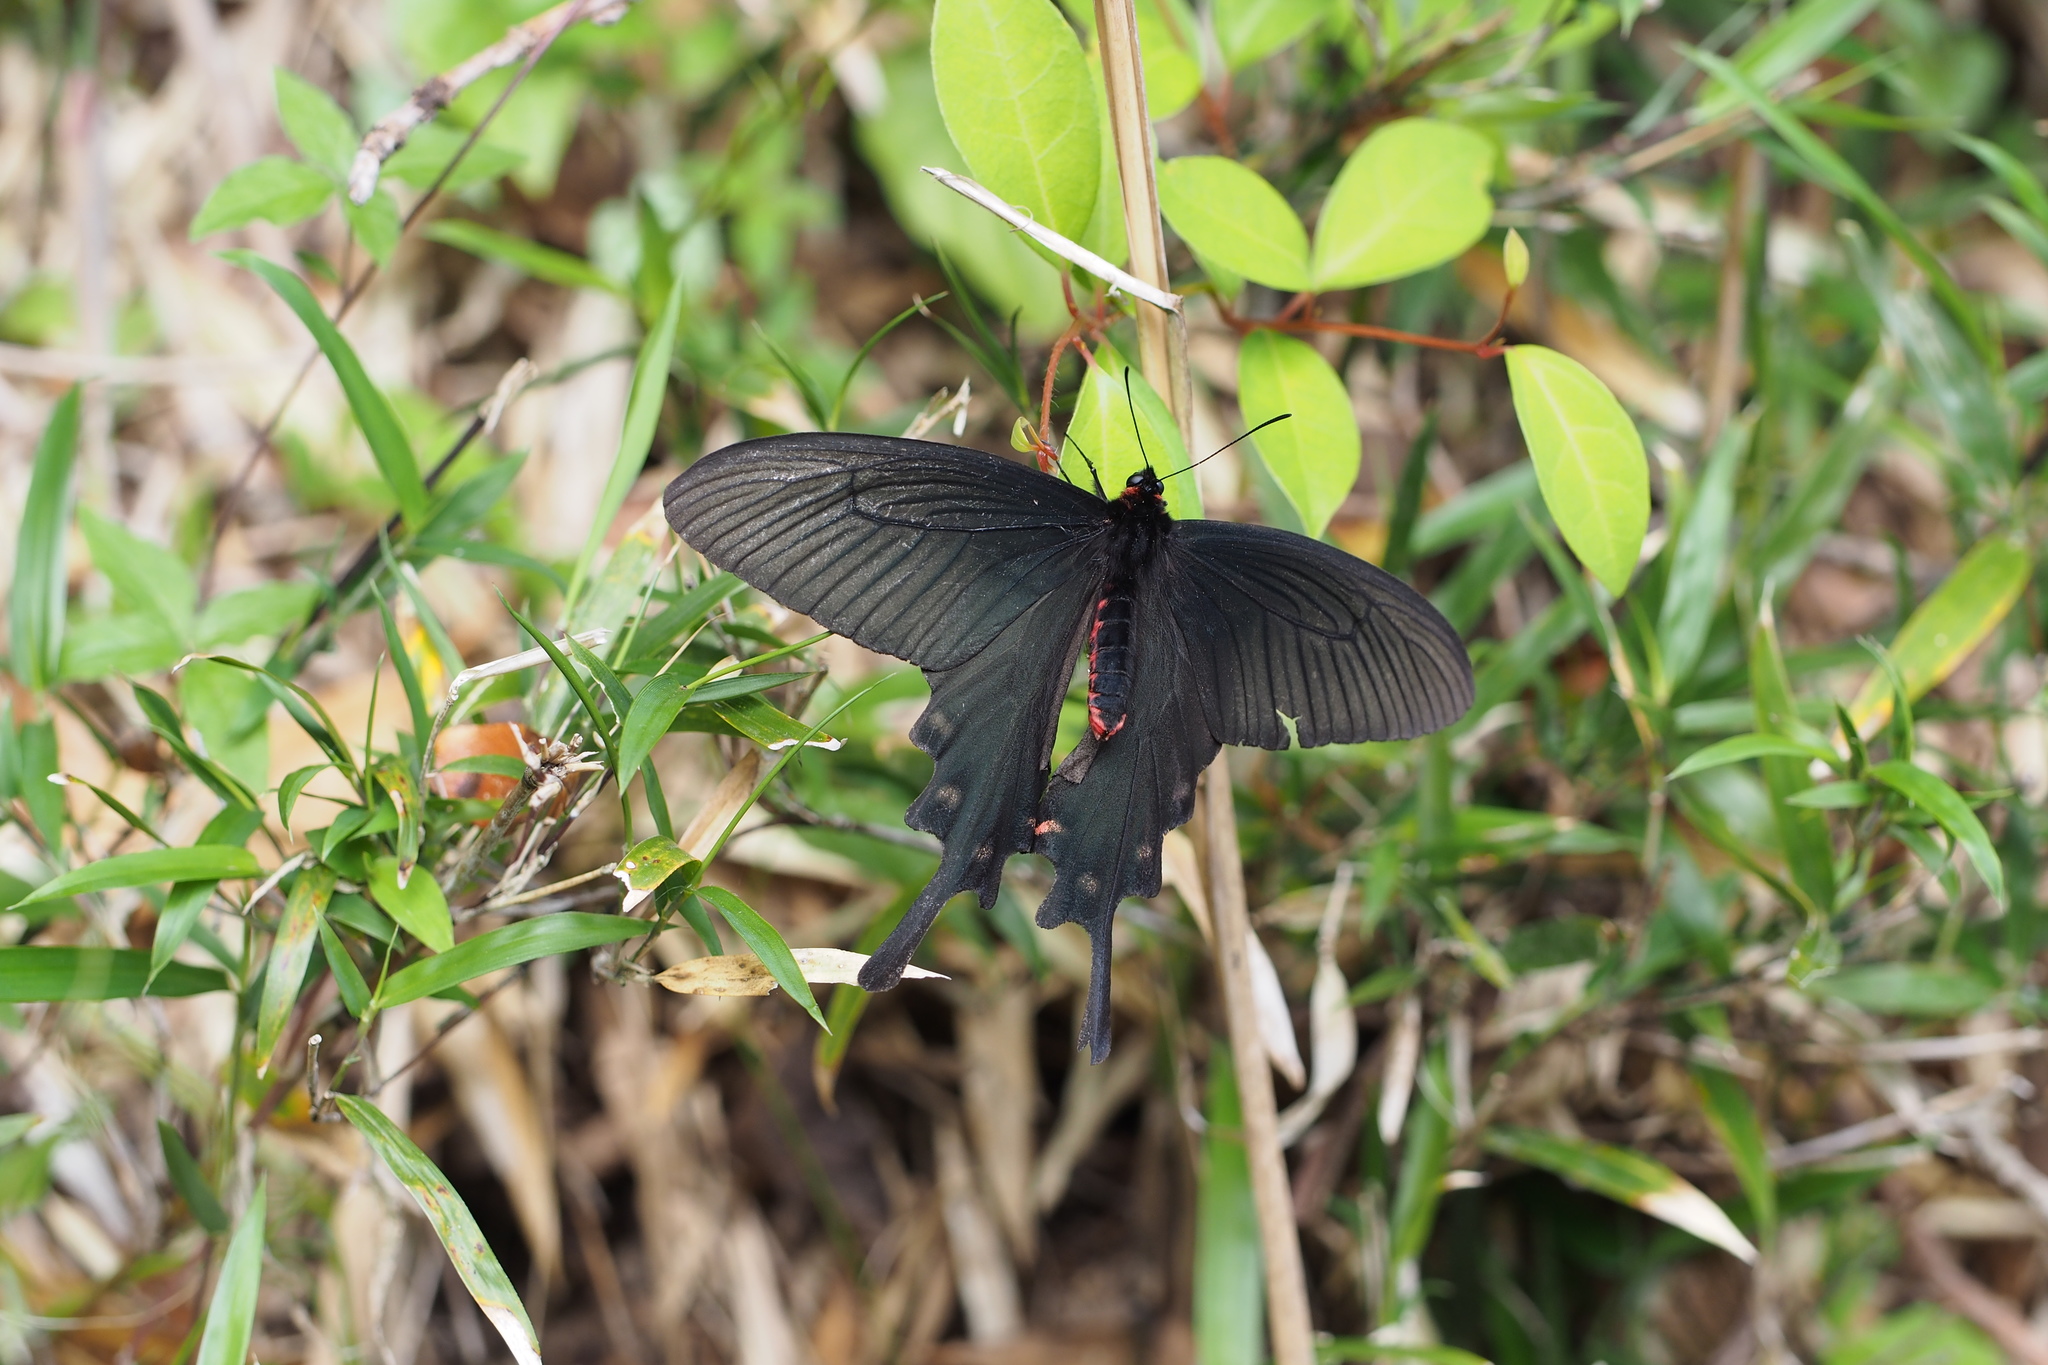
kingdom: Animalia
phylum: Arthropoda
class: Insecta
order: Lepidoptera
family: Papilionidae
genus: Byasa
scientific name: Byasa alcinous
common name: Chinese windmill
